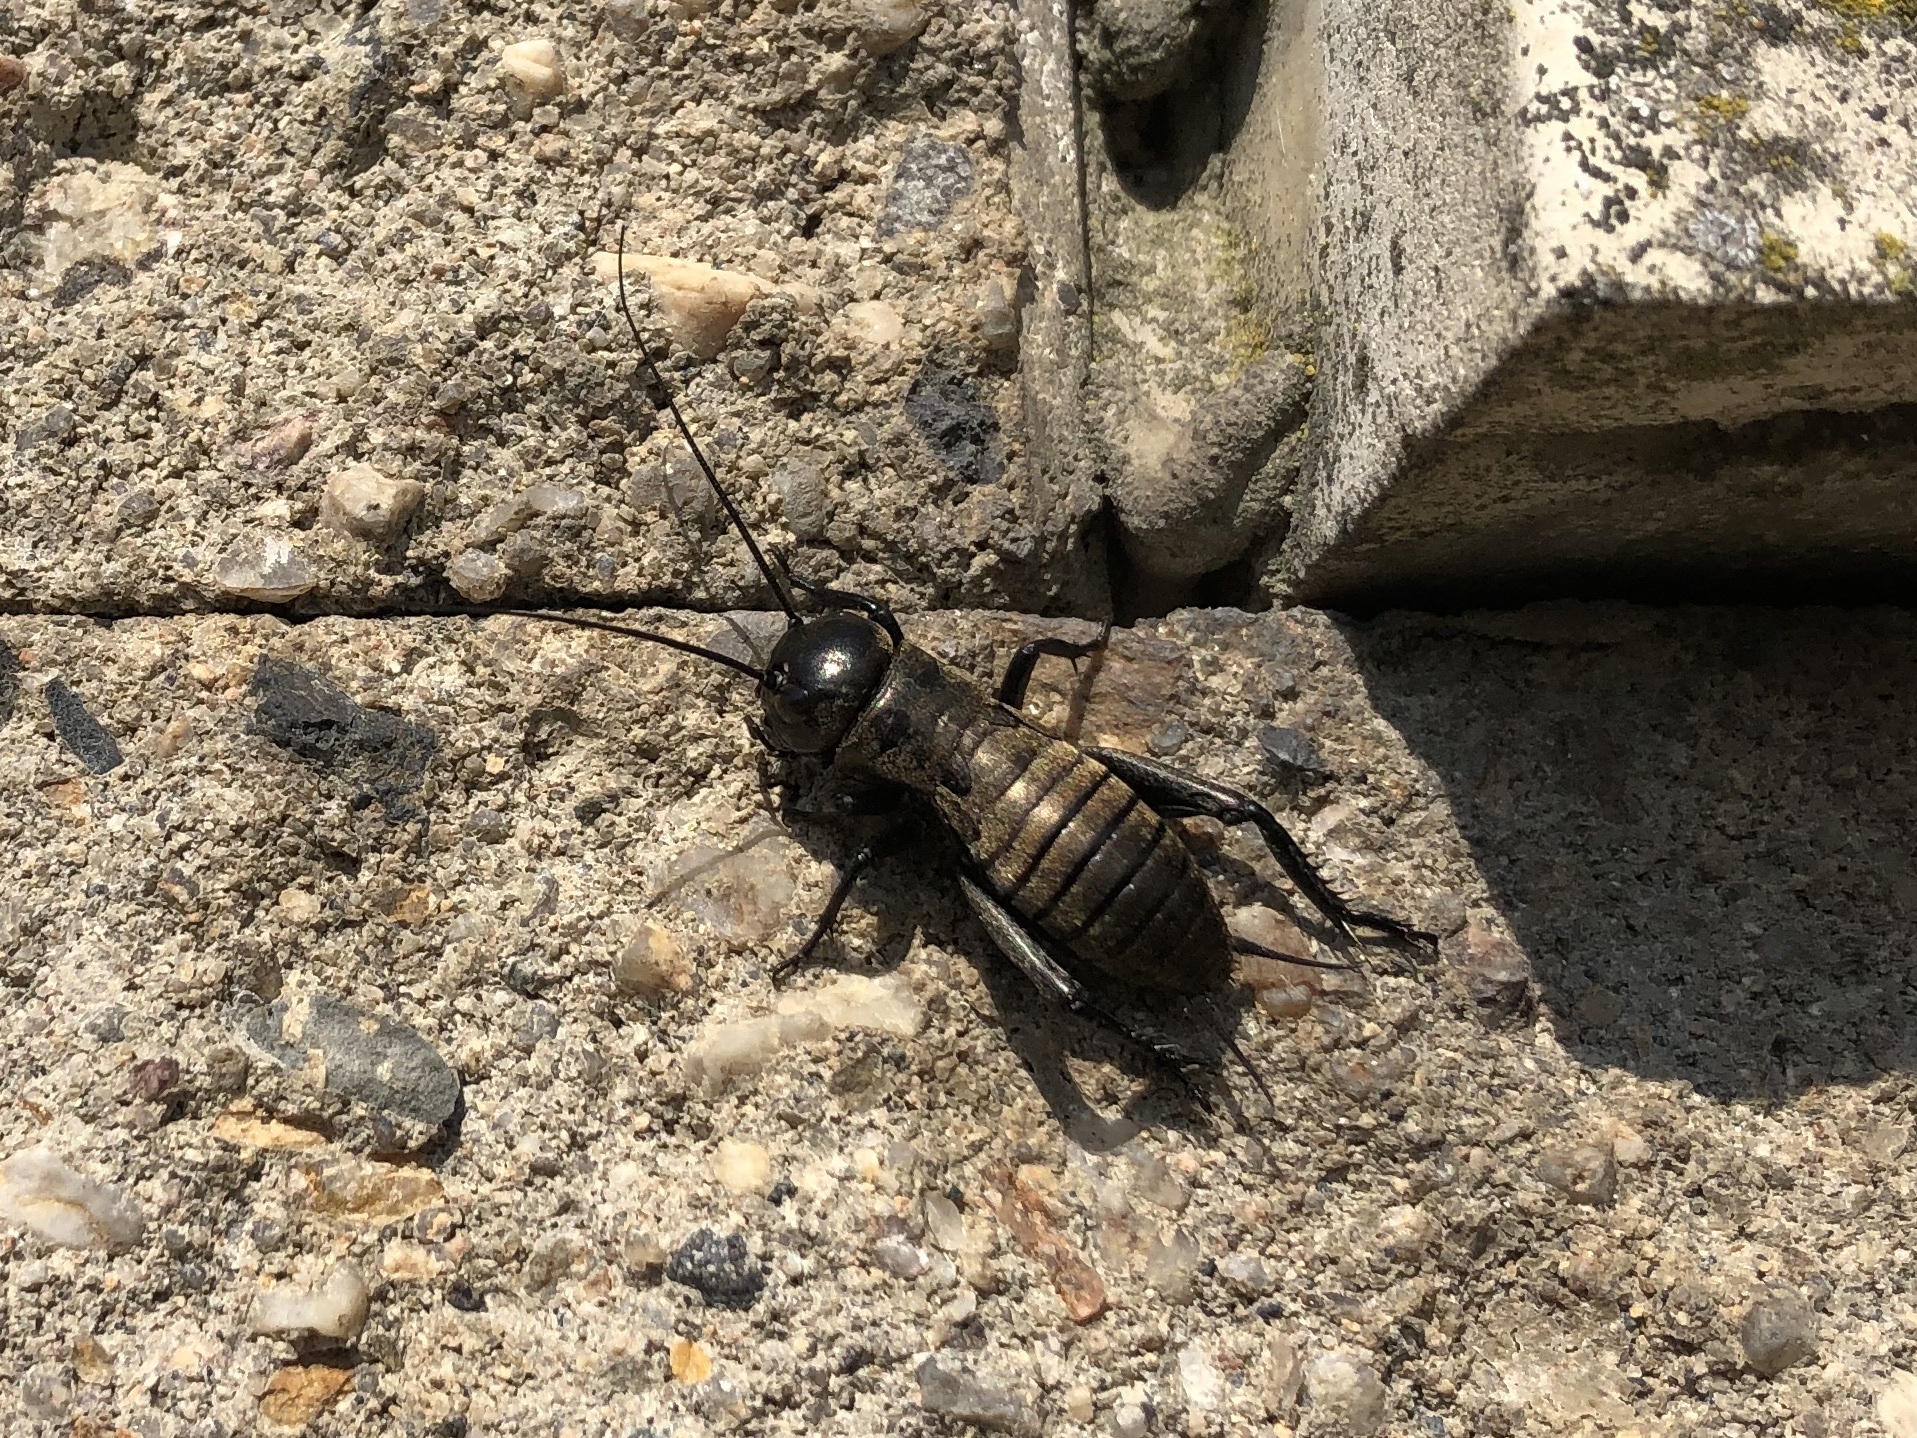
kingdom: Animalia
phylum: Arthropoda
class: Insecta
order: Orthoptera
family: Gryllidae
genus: Gryllus
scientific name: Gryllus campestris
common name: Field cricket
